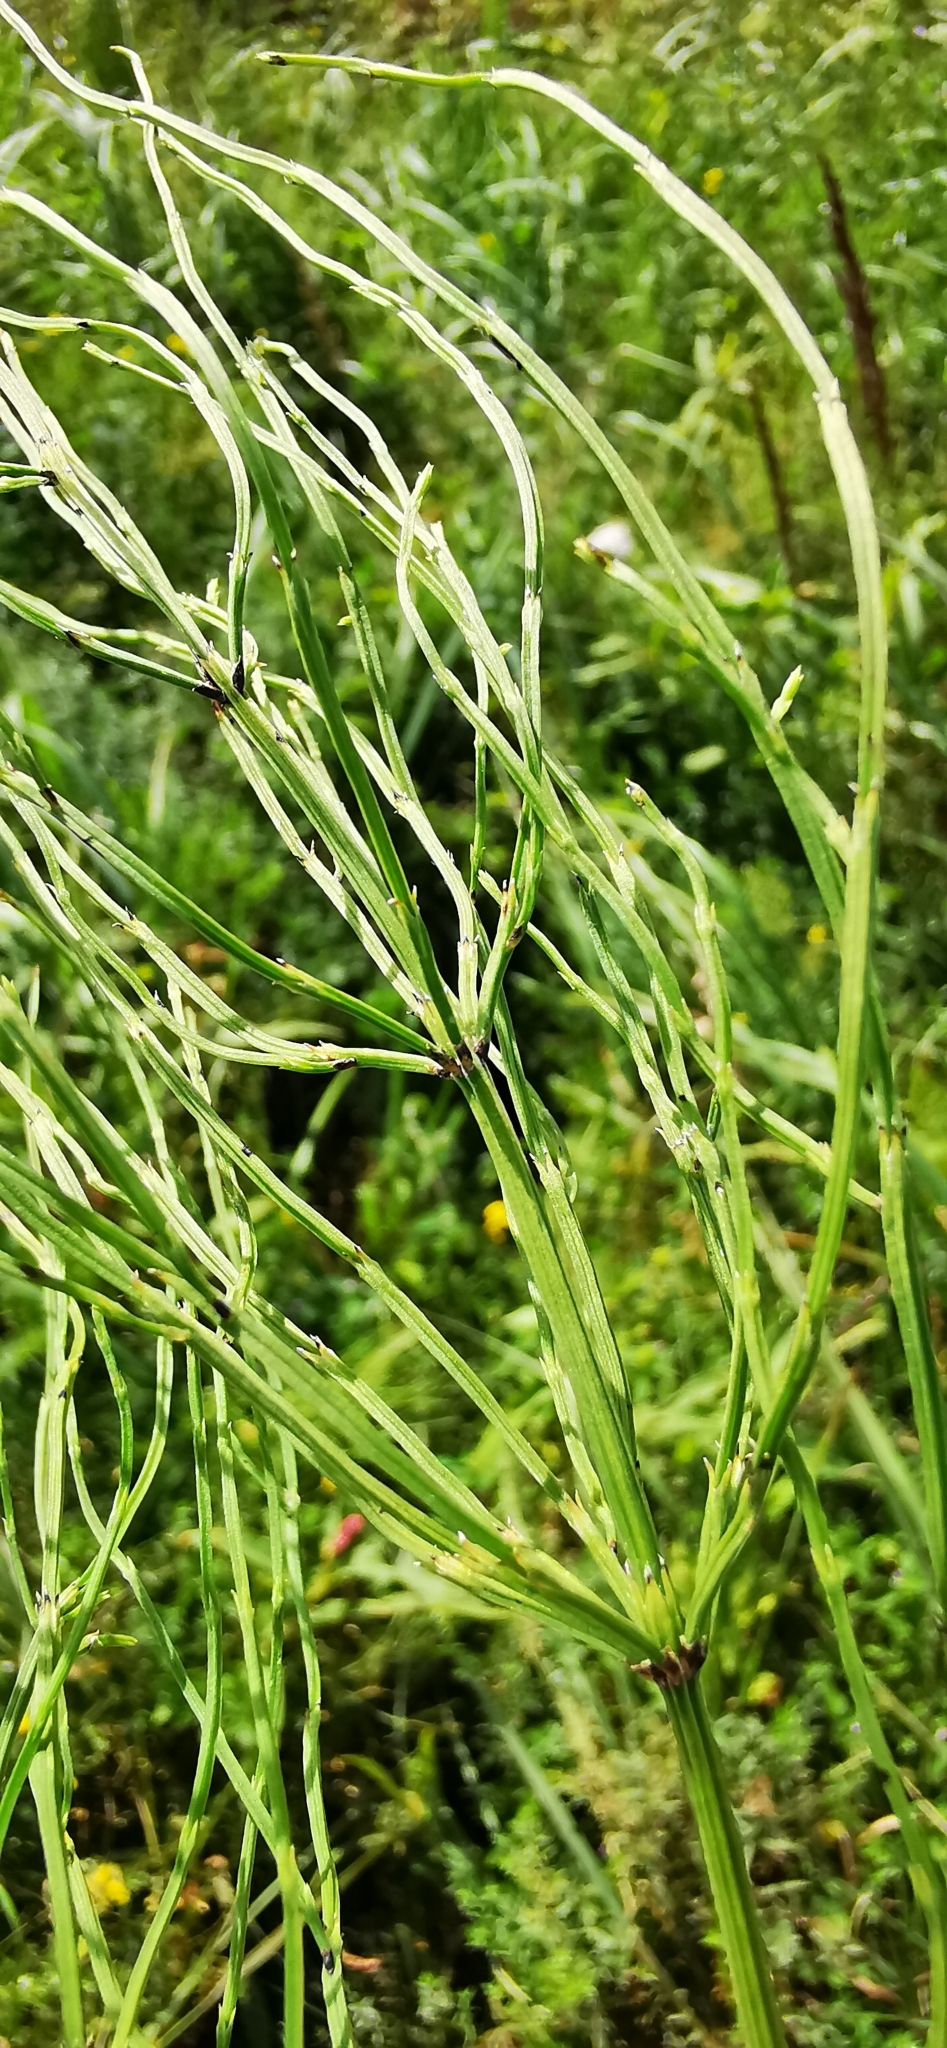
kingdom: Plantae
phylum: Tracheophyta
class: Polypodiopsida
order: Equisetales
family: Equisetaceae
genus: Equisetum
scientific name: Equisetum arvense
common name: Field horsetail
